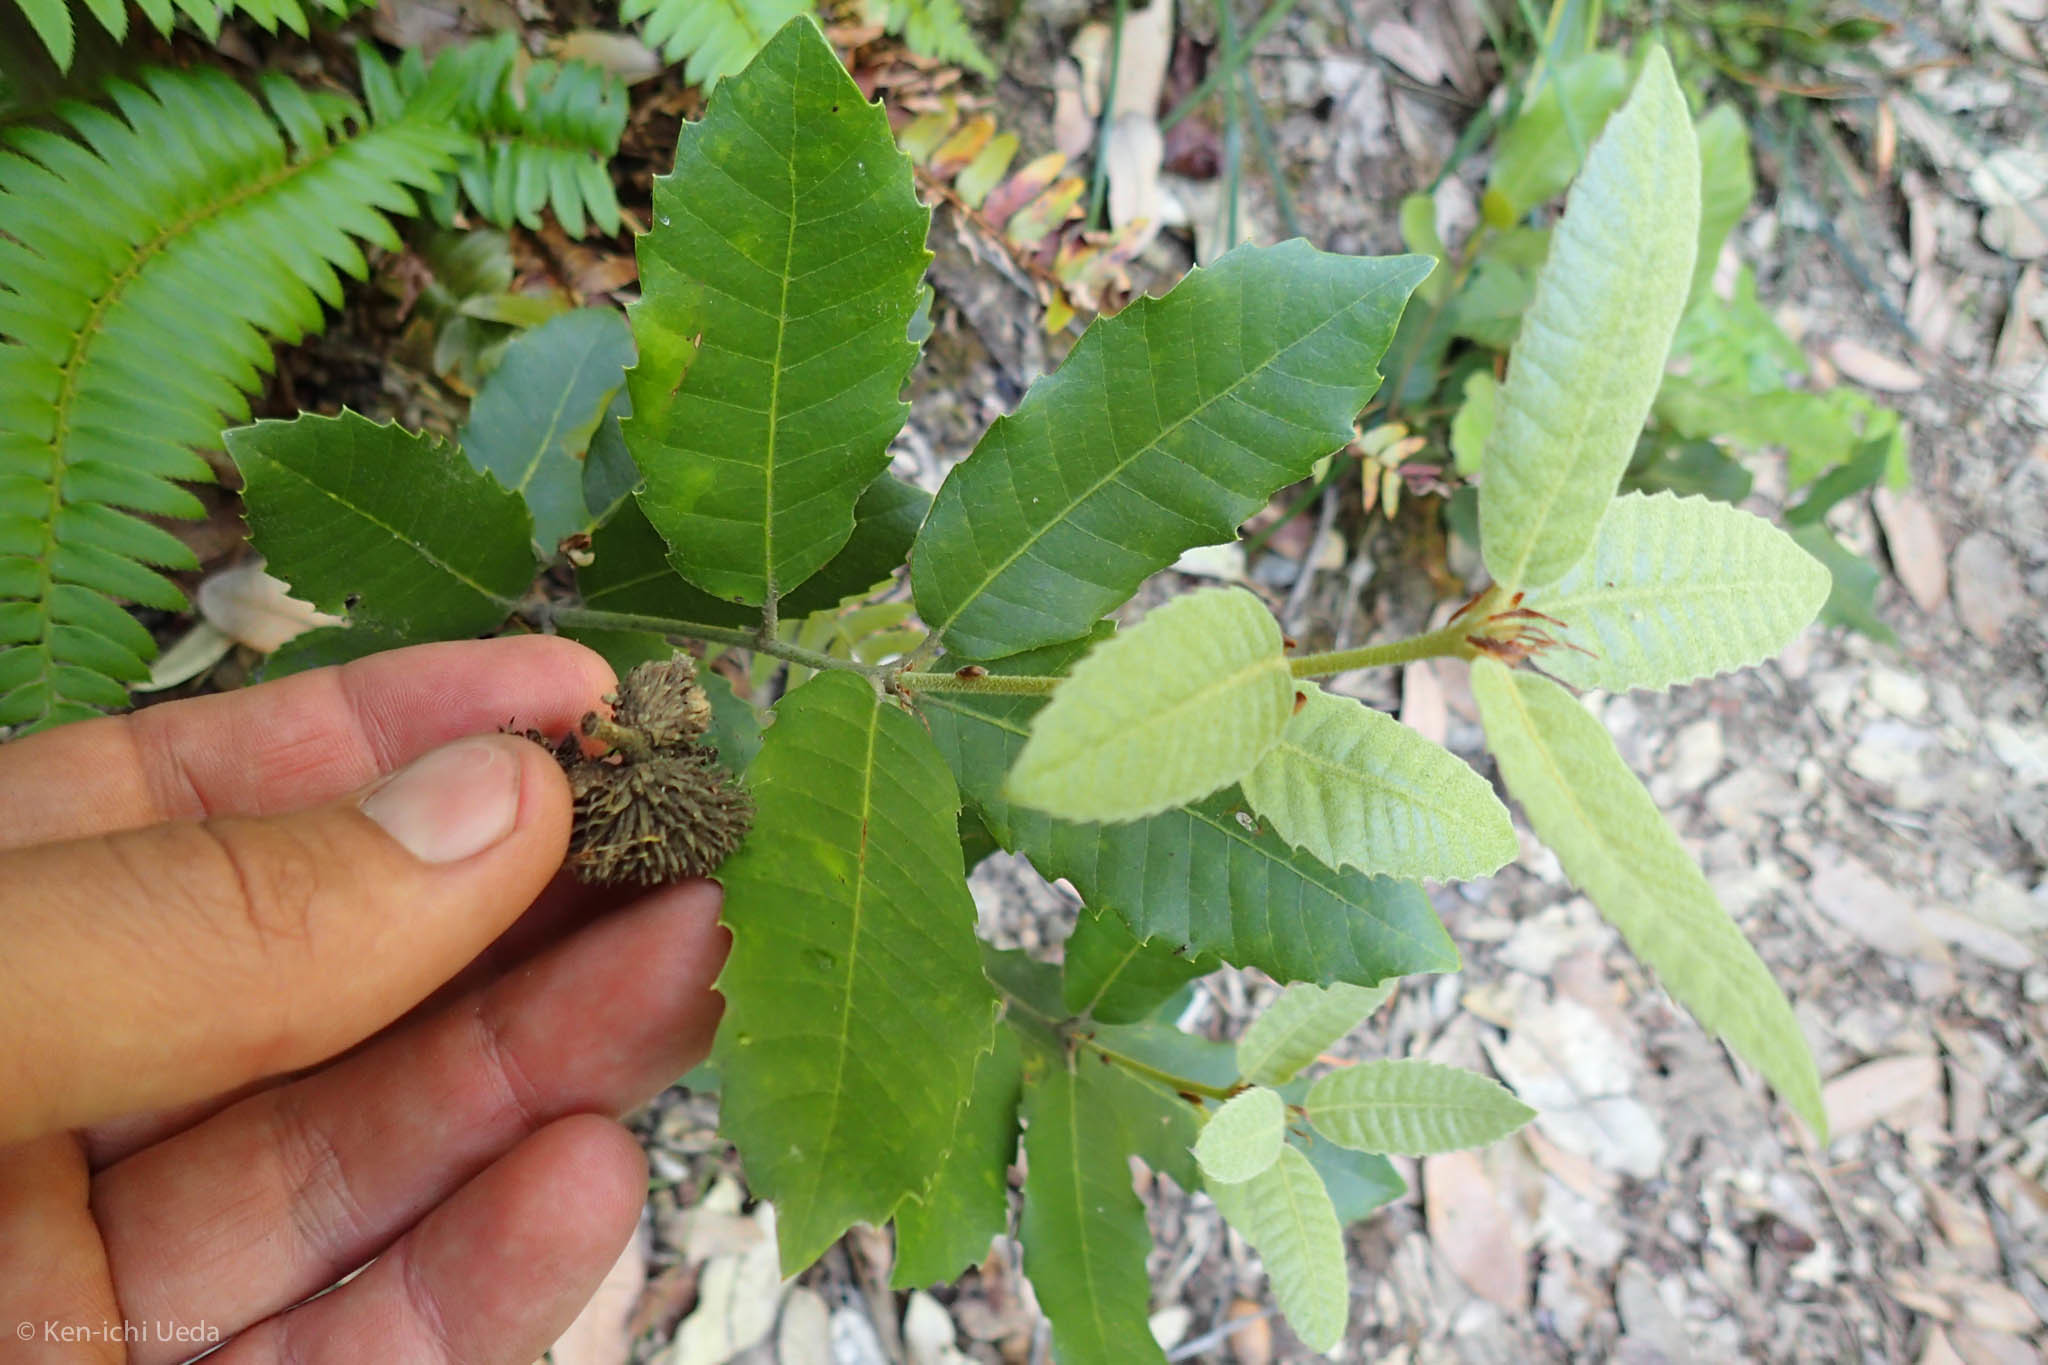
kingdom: Plantae
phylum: Tracheophyta
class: Magnoliopsida
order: Fagales
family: Fagaceae
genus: Notholithocarpus
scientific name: Notholithocarpus densiflorus
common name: Tan bark oak
